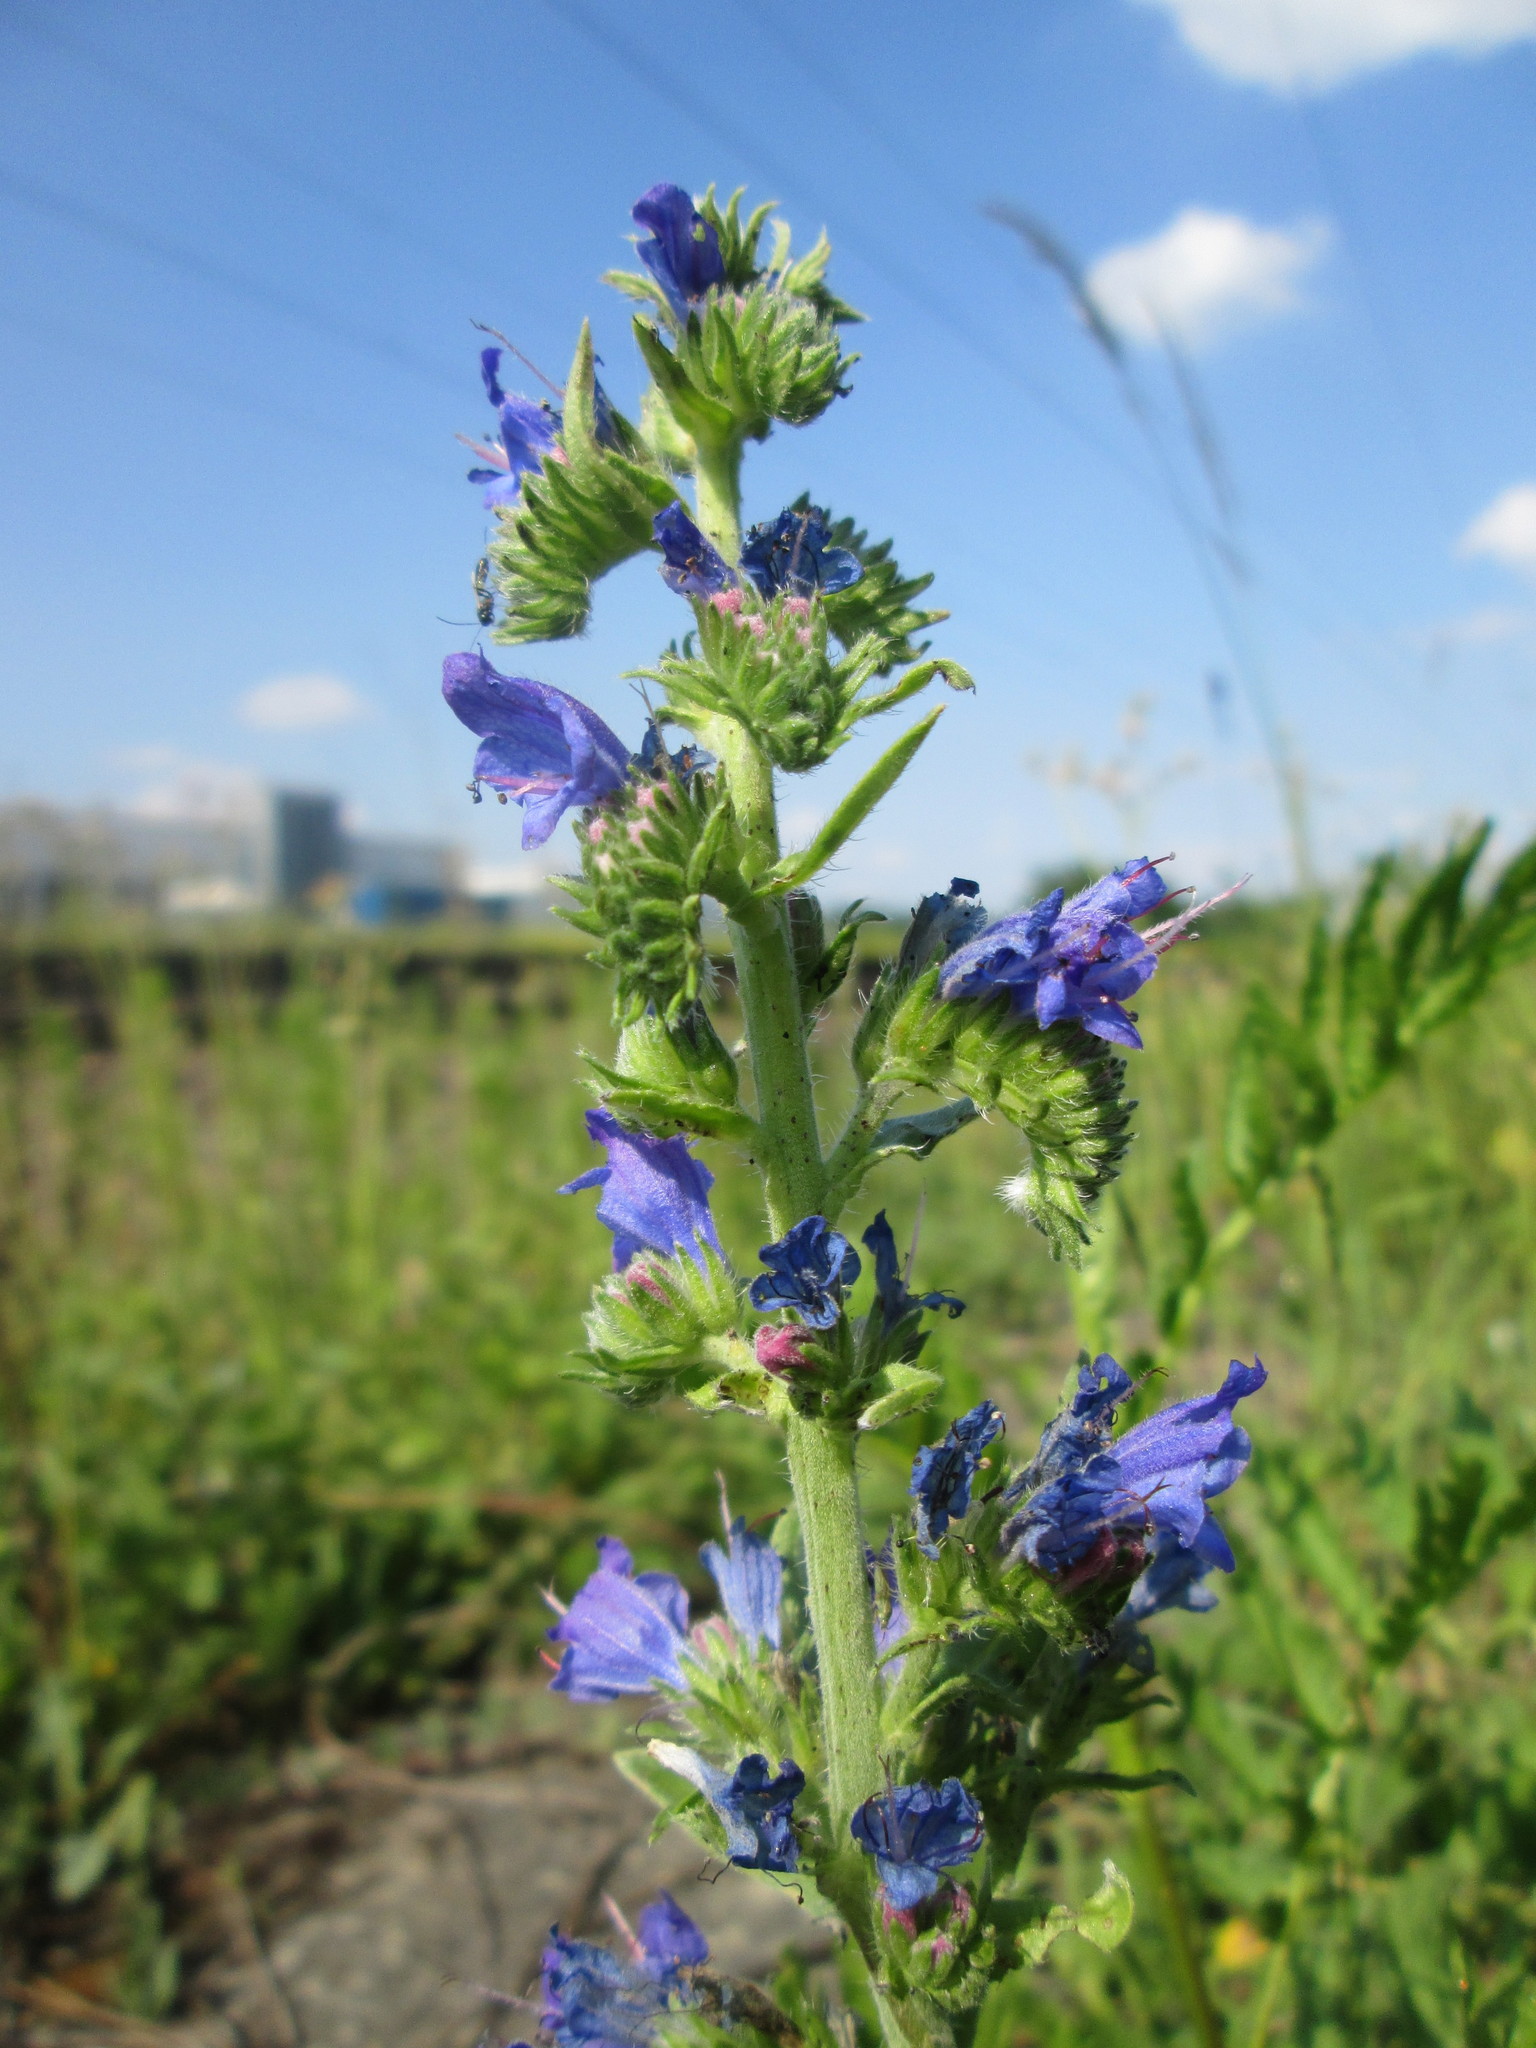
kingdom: Plantae
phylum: Tracheophyta
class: Magnoliopsida
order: Boraginales
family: Boraginaceae
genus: Echium
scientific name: Echium vulgare
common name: Common viper's bugloss
